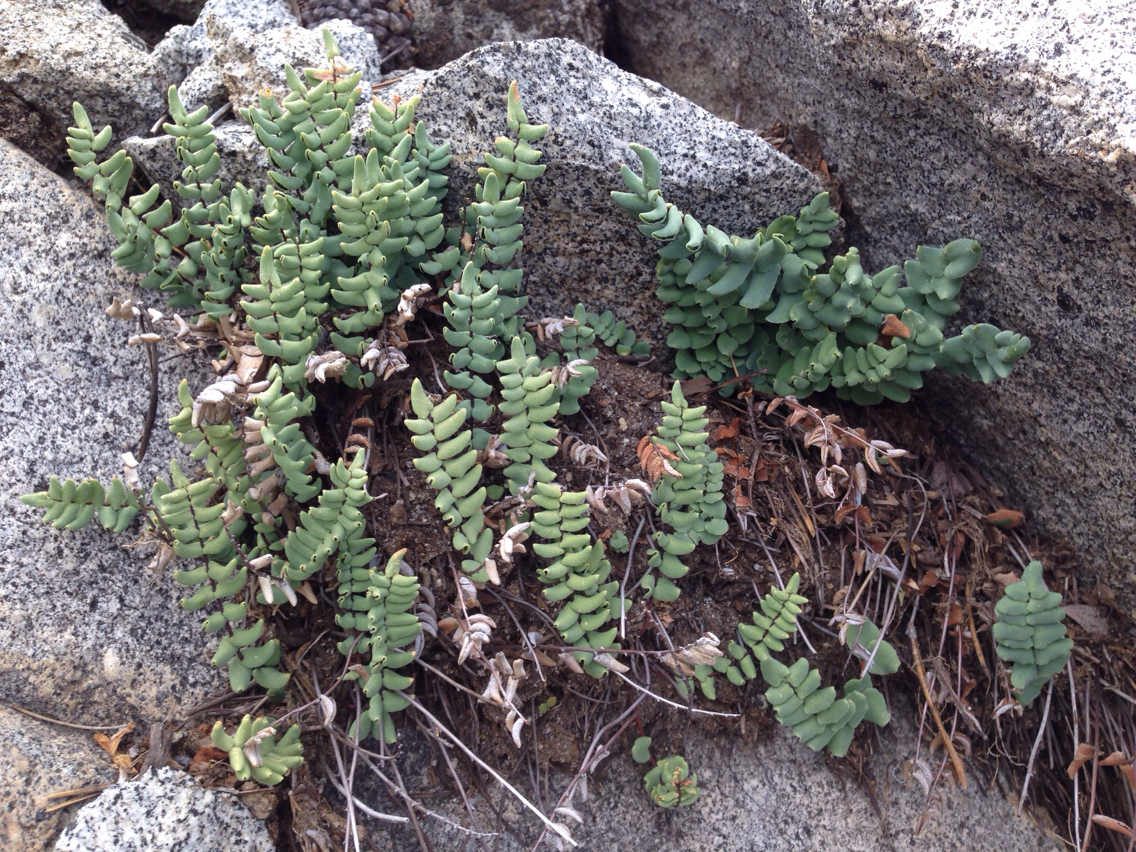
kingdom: Plantae
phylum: Tracheophyta
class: Polypodiopsida
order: Polypodiales
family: Pteridaceae
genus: Pellaea
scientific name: Pellaea bridgesii
